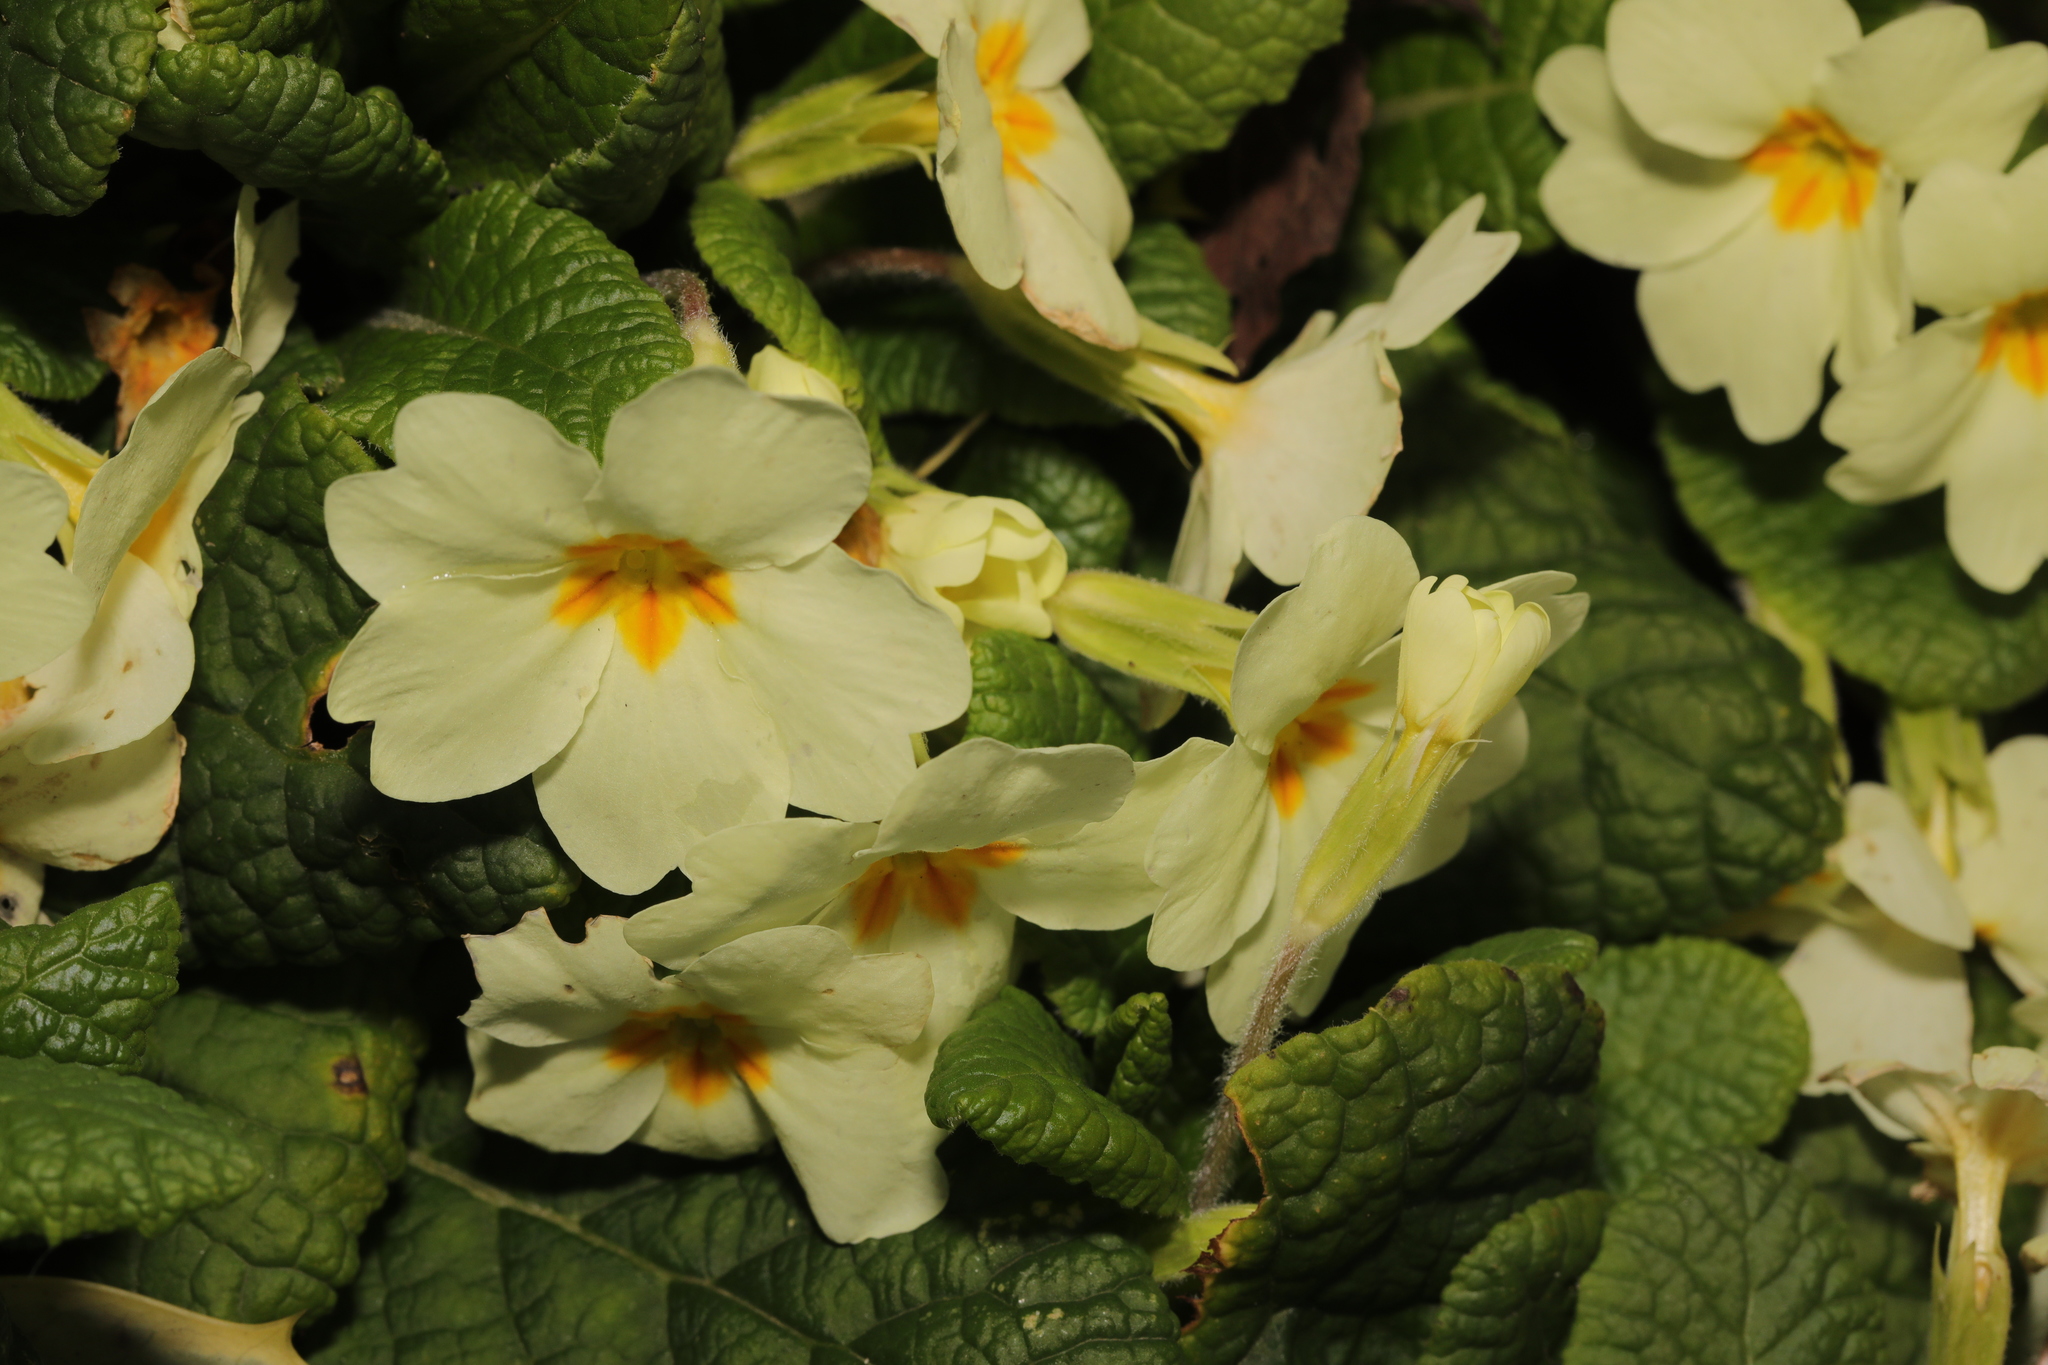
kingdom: Plantae
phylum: Tracheophyta
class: Magnoliopsida
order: Ericales
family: Primulaceae
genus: Primula
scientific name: Primula vulgaris
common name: Primrose
